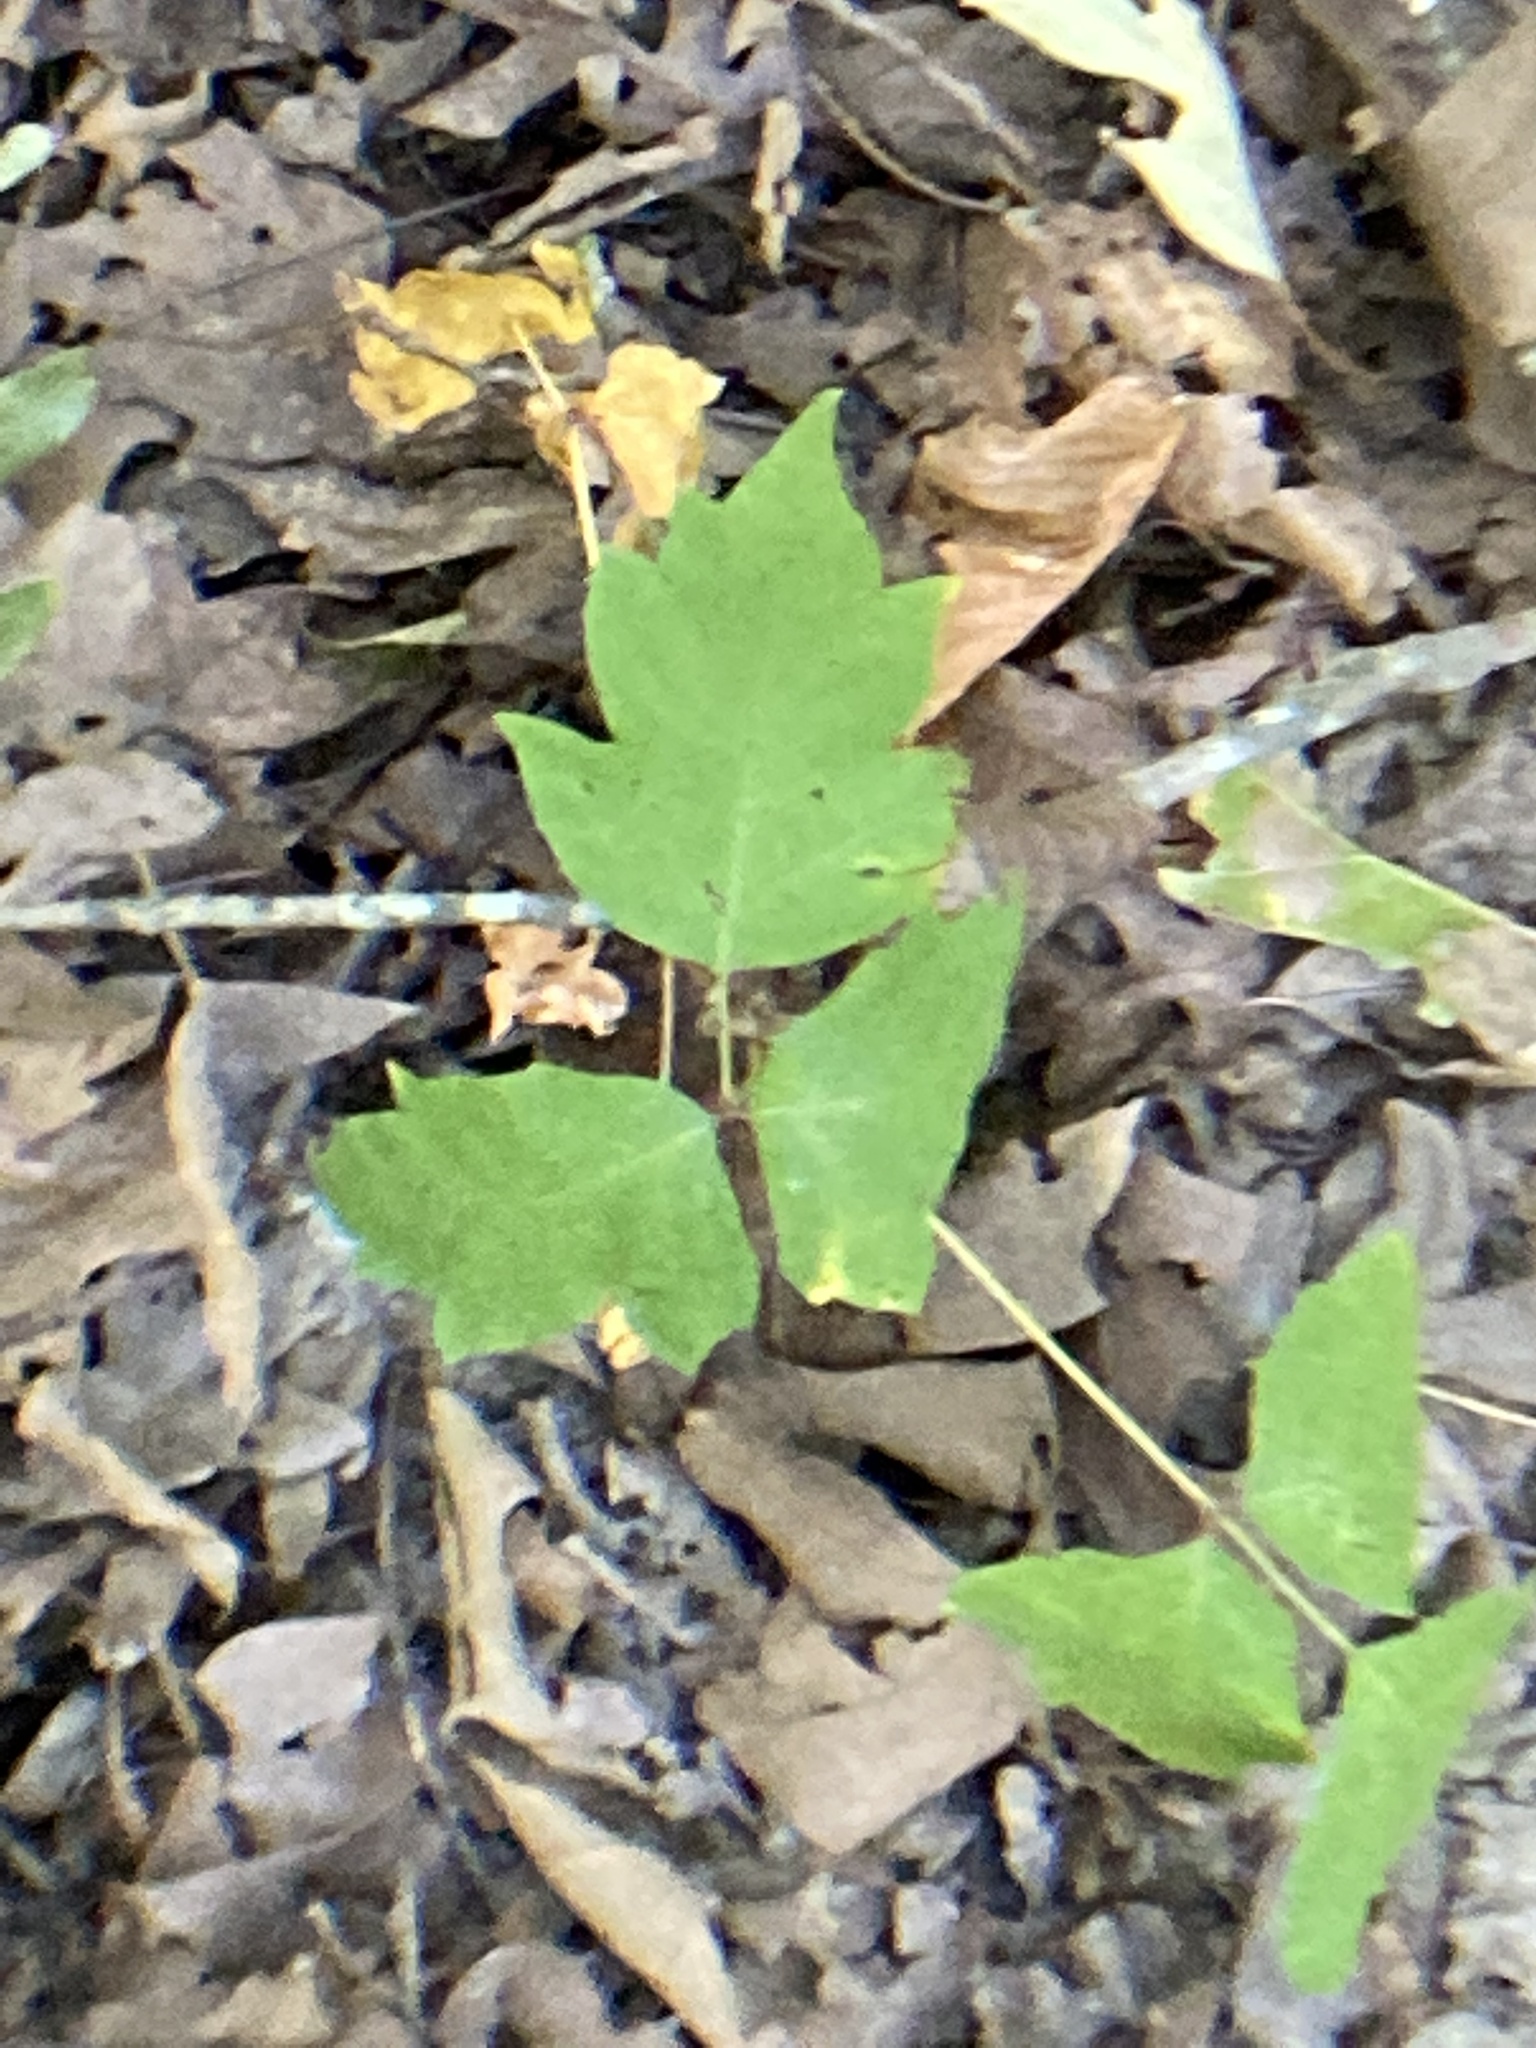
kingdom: Plantae
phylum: Tracheophyta
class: Magnoliopsida
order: Sapindales
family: Anacardiaceae
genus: Toxicodendron
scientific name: Toxicodendron radicans
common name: Poison ivy
